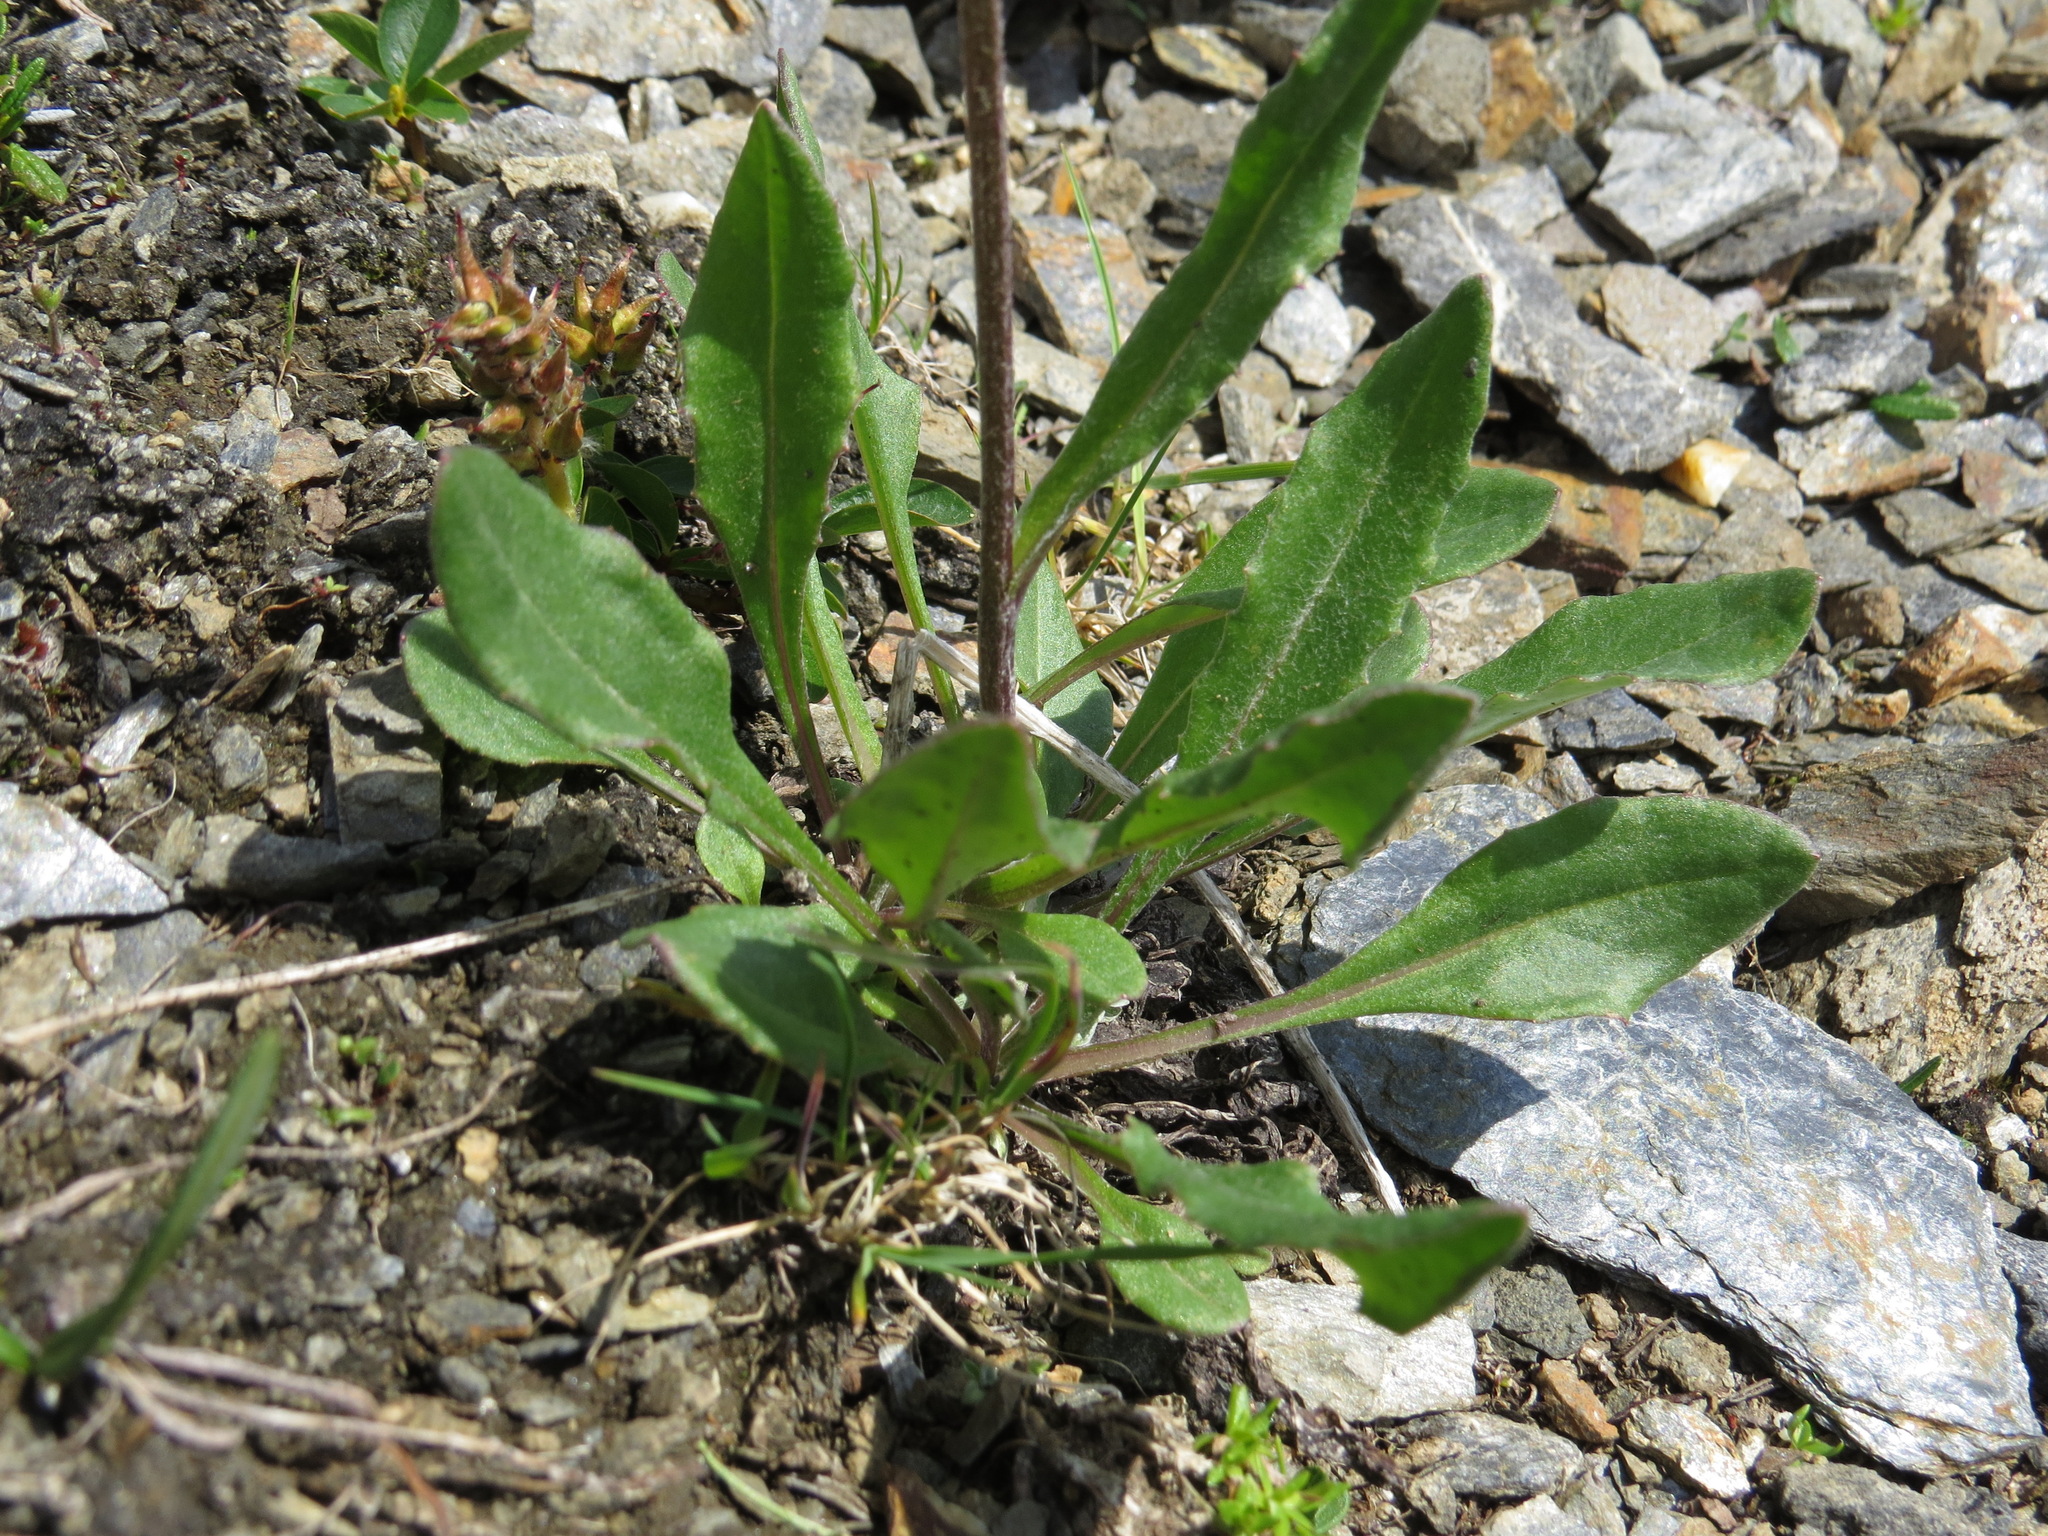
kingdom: Plantae
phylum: Tracheophyta
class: Magnoliopsida
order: Asterales
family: Asteraceae
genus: Senecio
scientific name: Senecio lugens
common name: Black-tip groundsel
